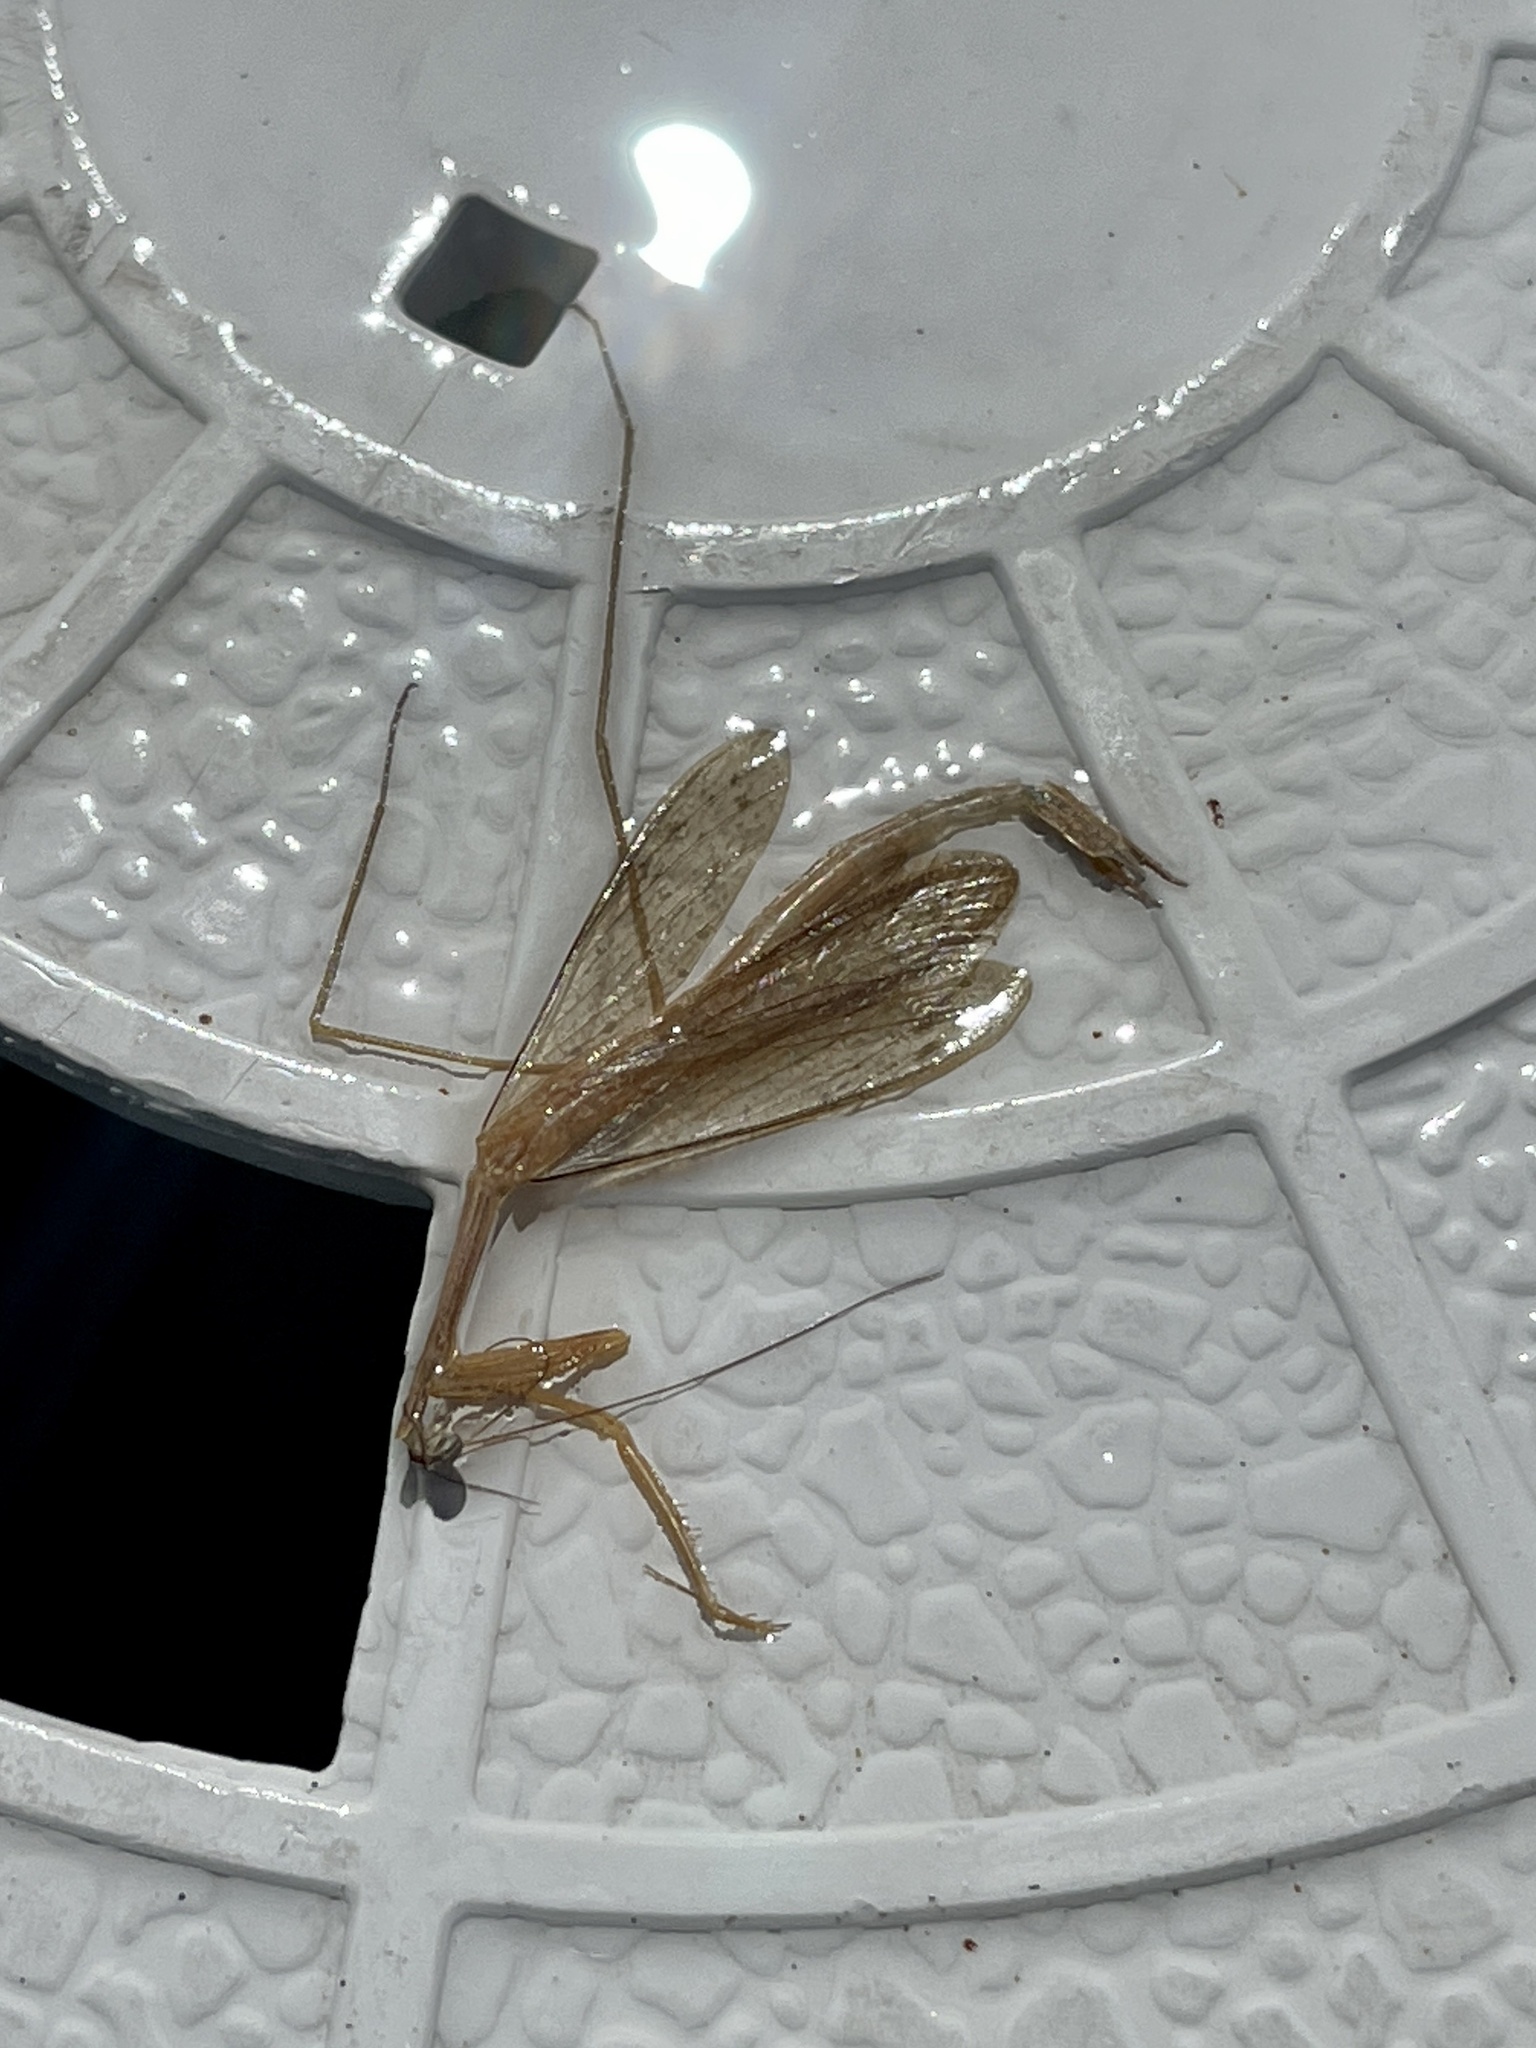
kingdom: Animalia
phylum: Arthropoda
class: Insecta
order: Mantodea
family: Thespidae
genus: Bistanta
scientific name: Bistanta campestris
